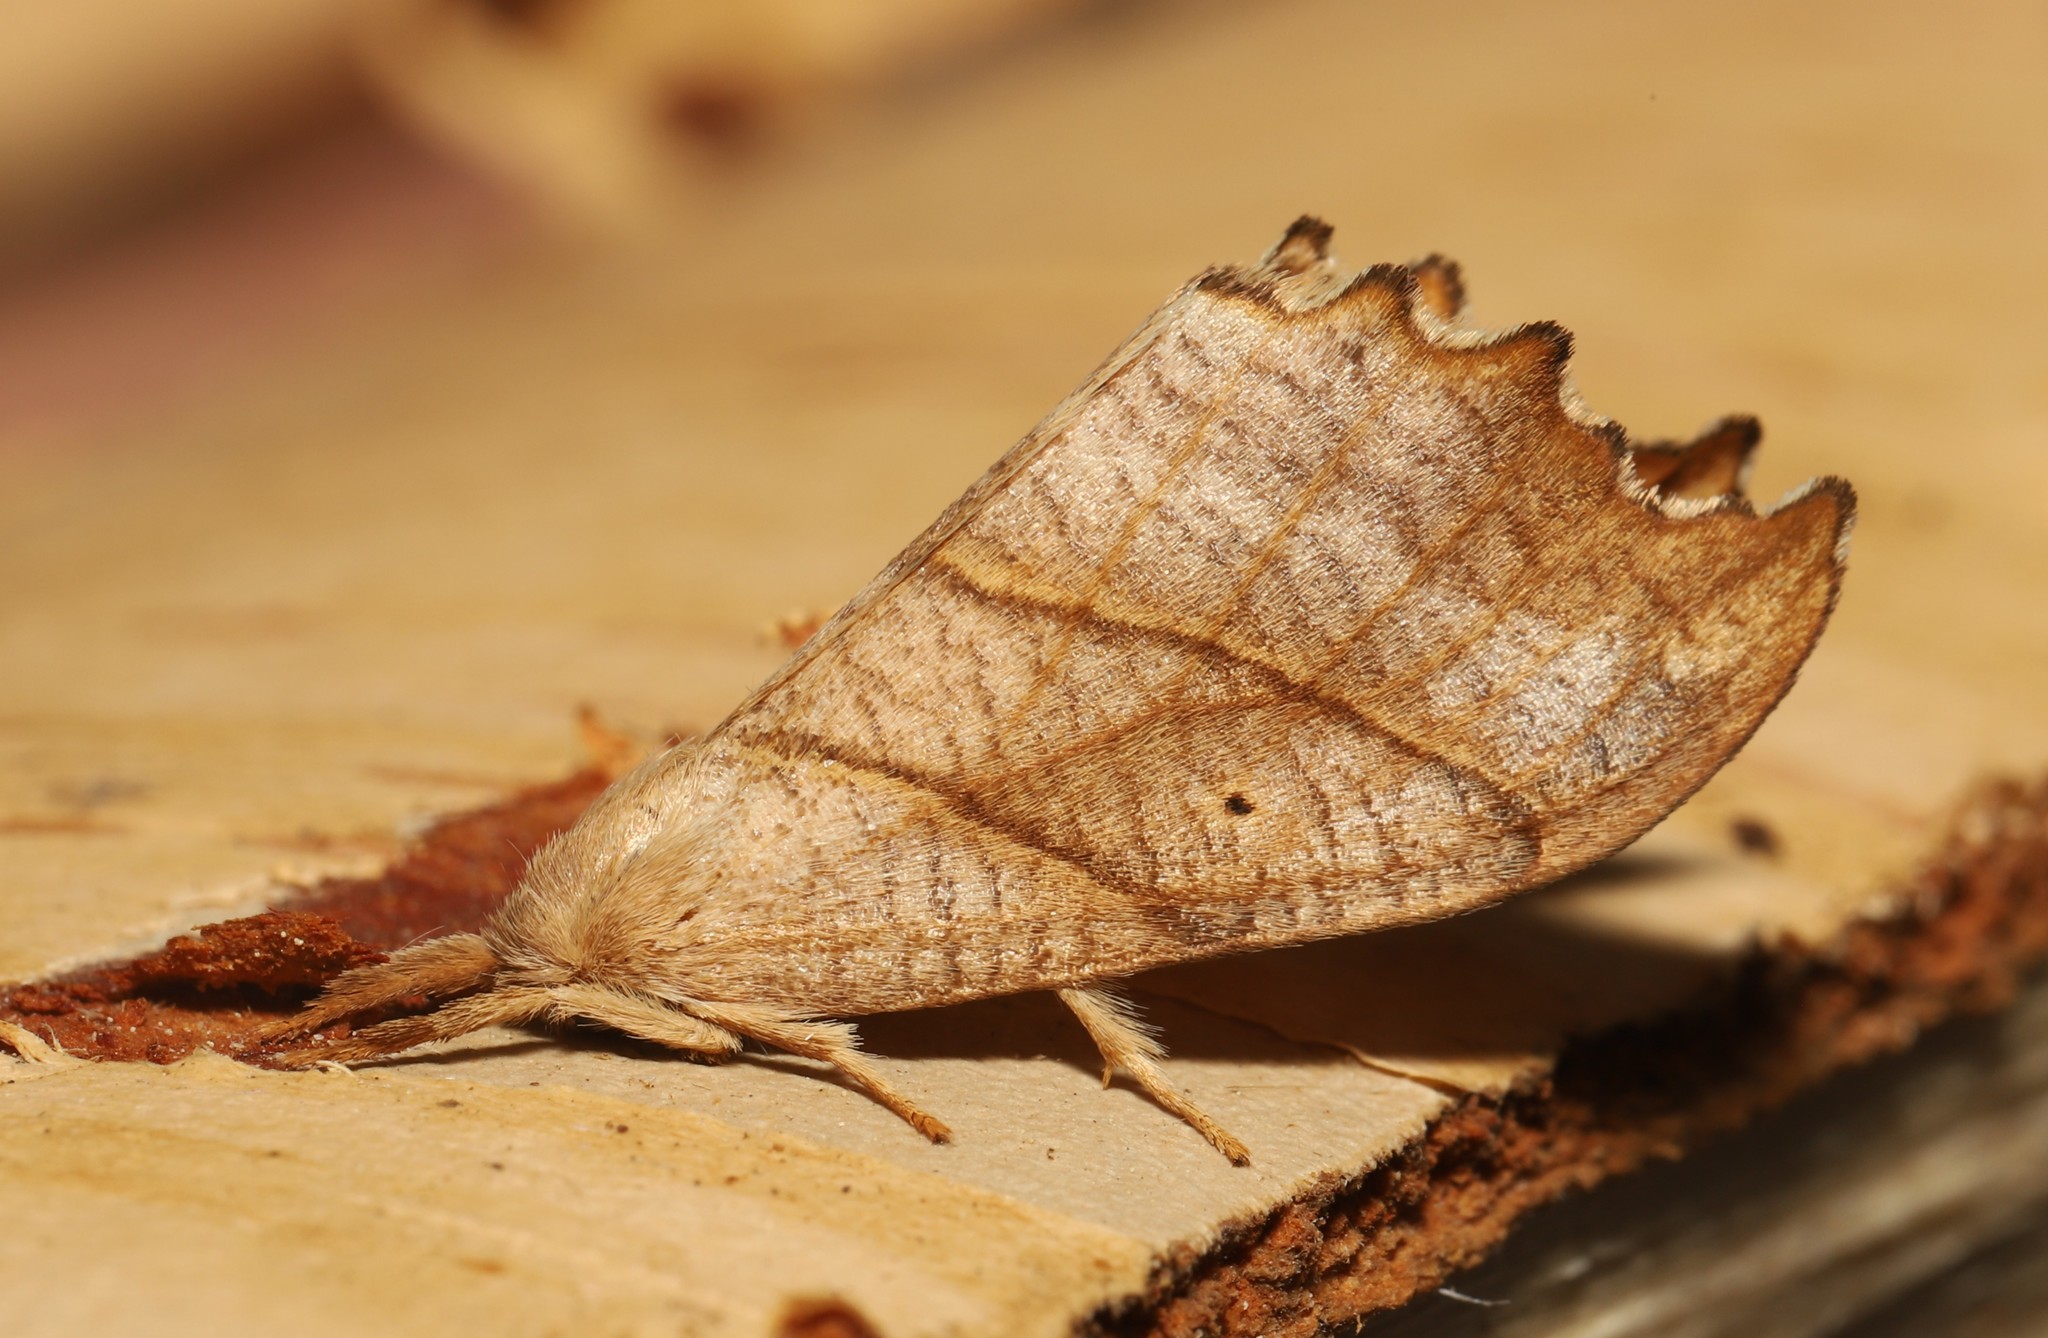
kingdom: Animalia
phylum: Arthropoda
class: Insecta
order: Lepidoptera
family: Drepanidae
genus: Falcaria
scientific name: Falcaria bilineata
